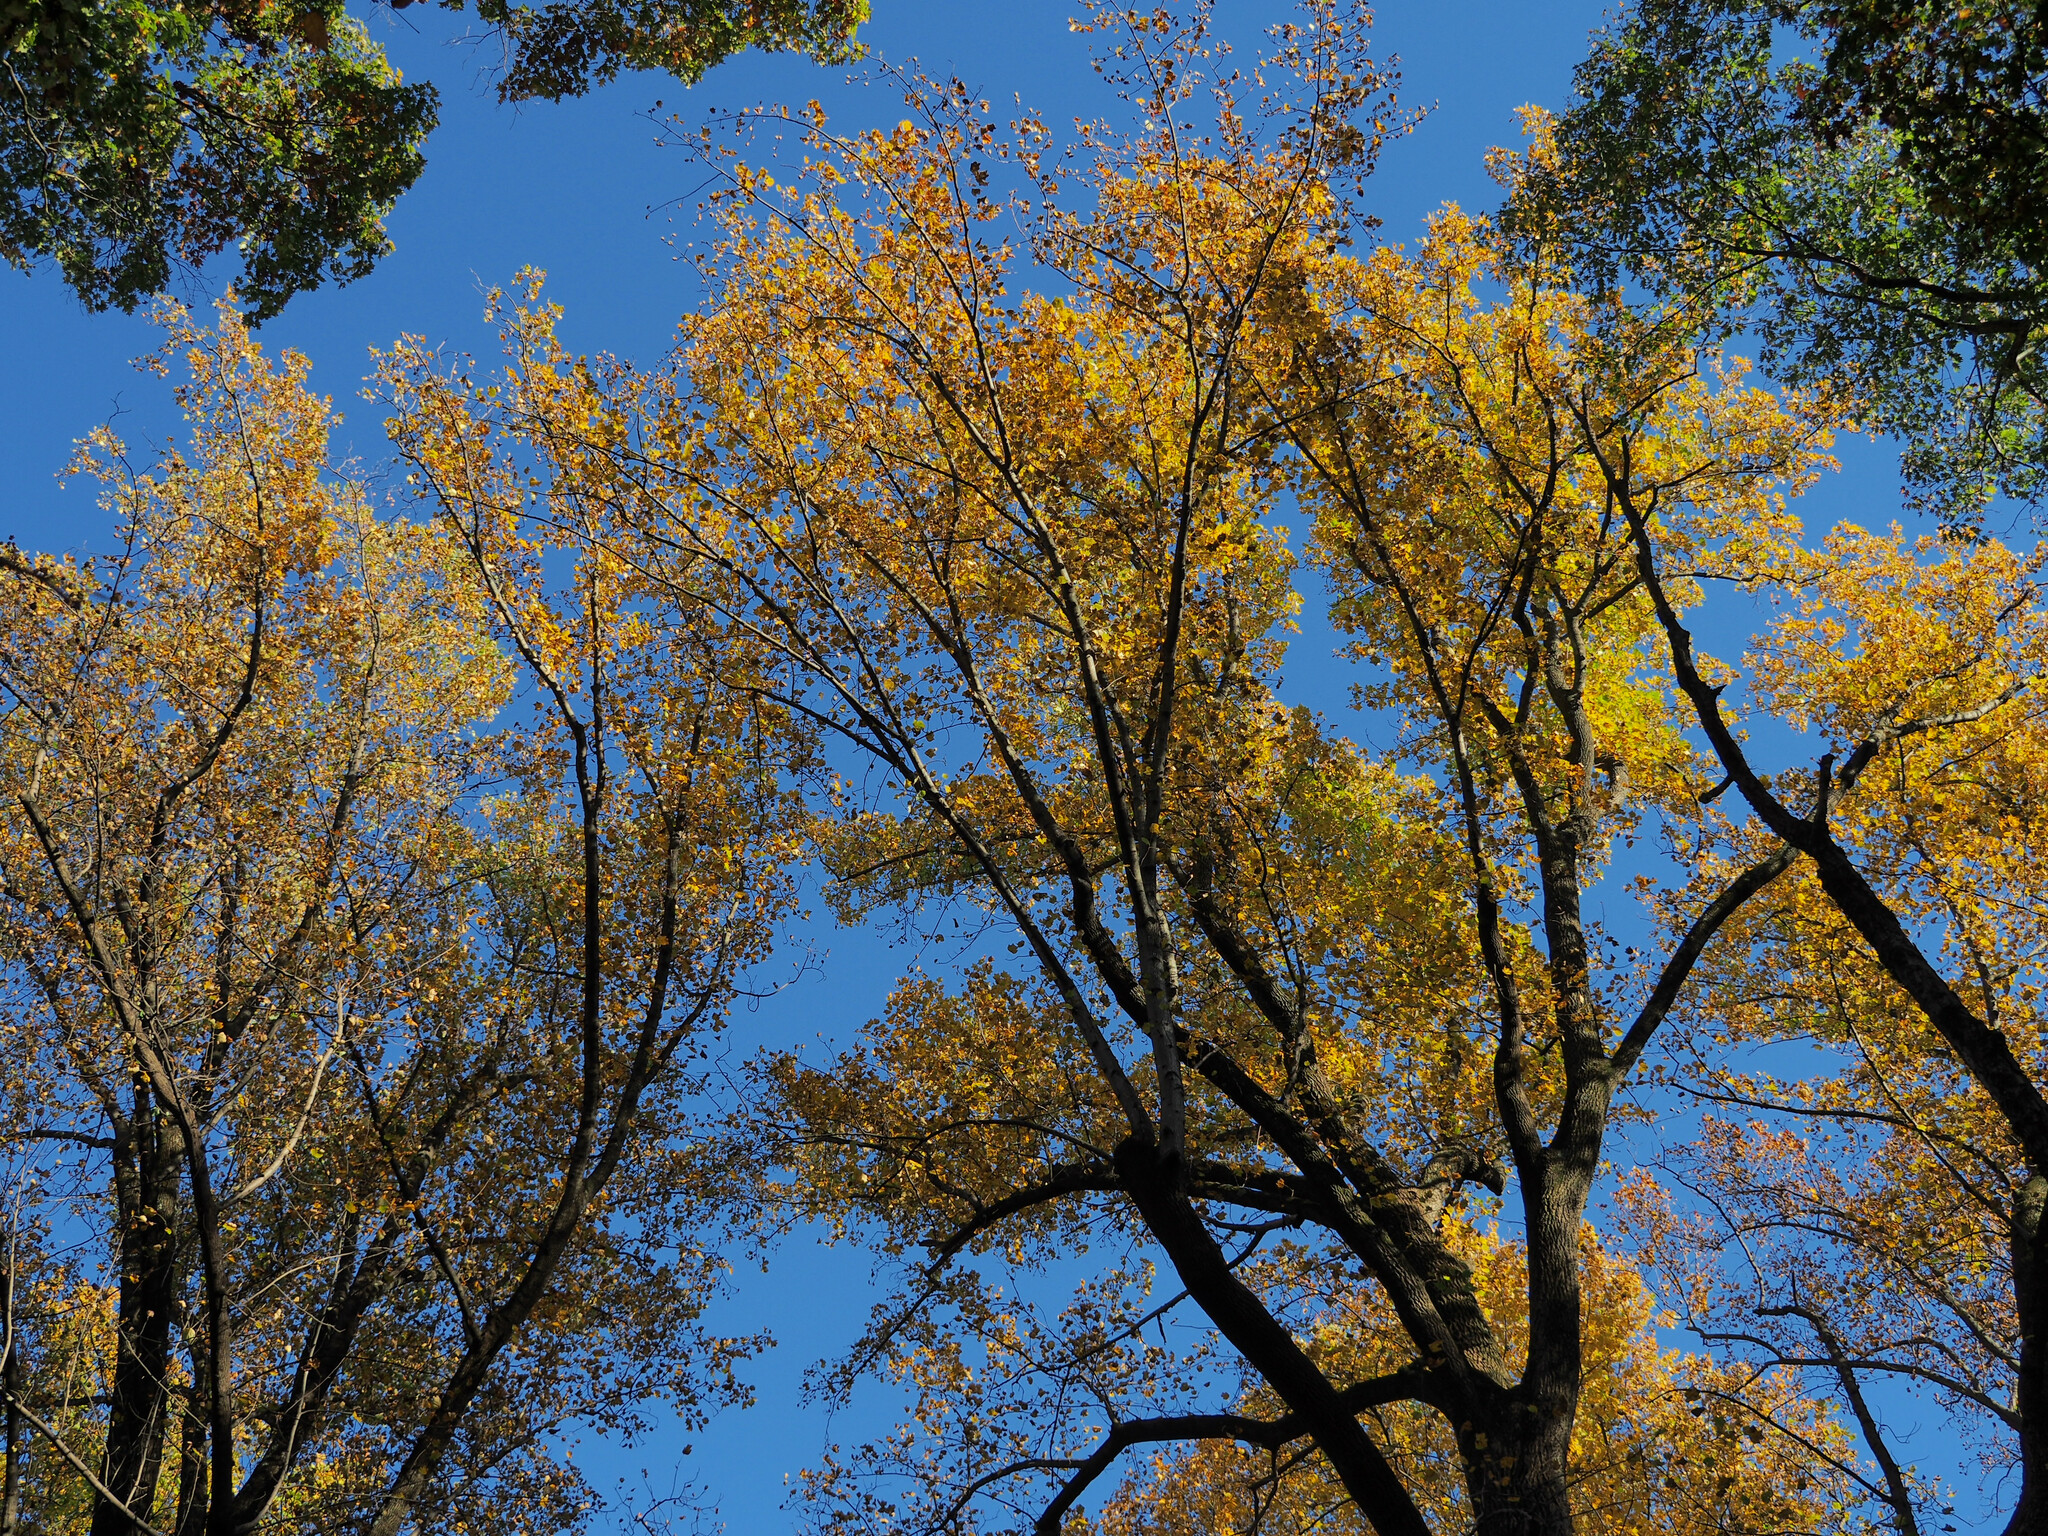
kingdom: Plantae
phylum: Tracheophyta
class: Magnoliopsida
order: Magnoliales
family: Magnoliaceae
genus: Liriodendron
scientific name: Liriodendron tulipifera
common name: Tulip tree
